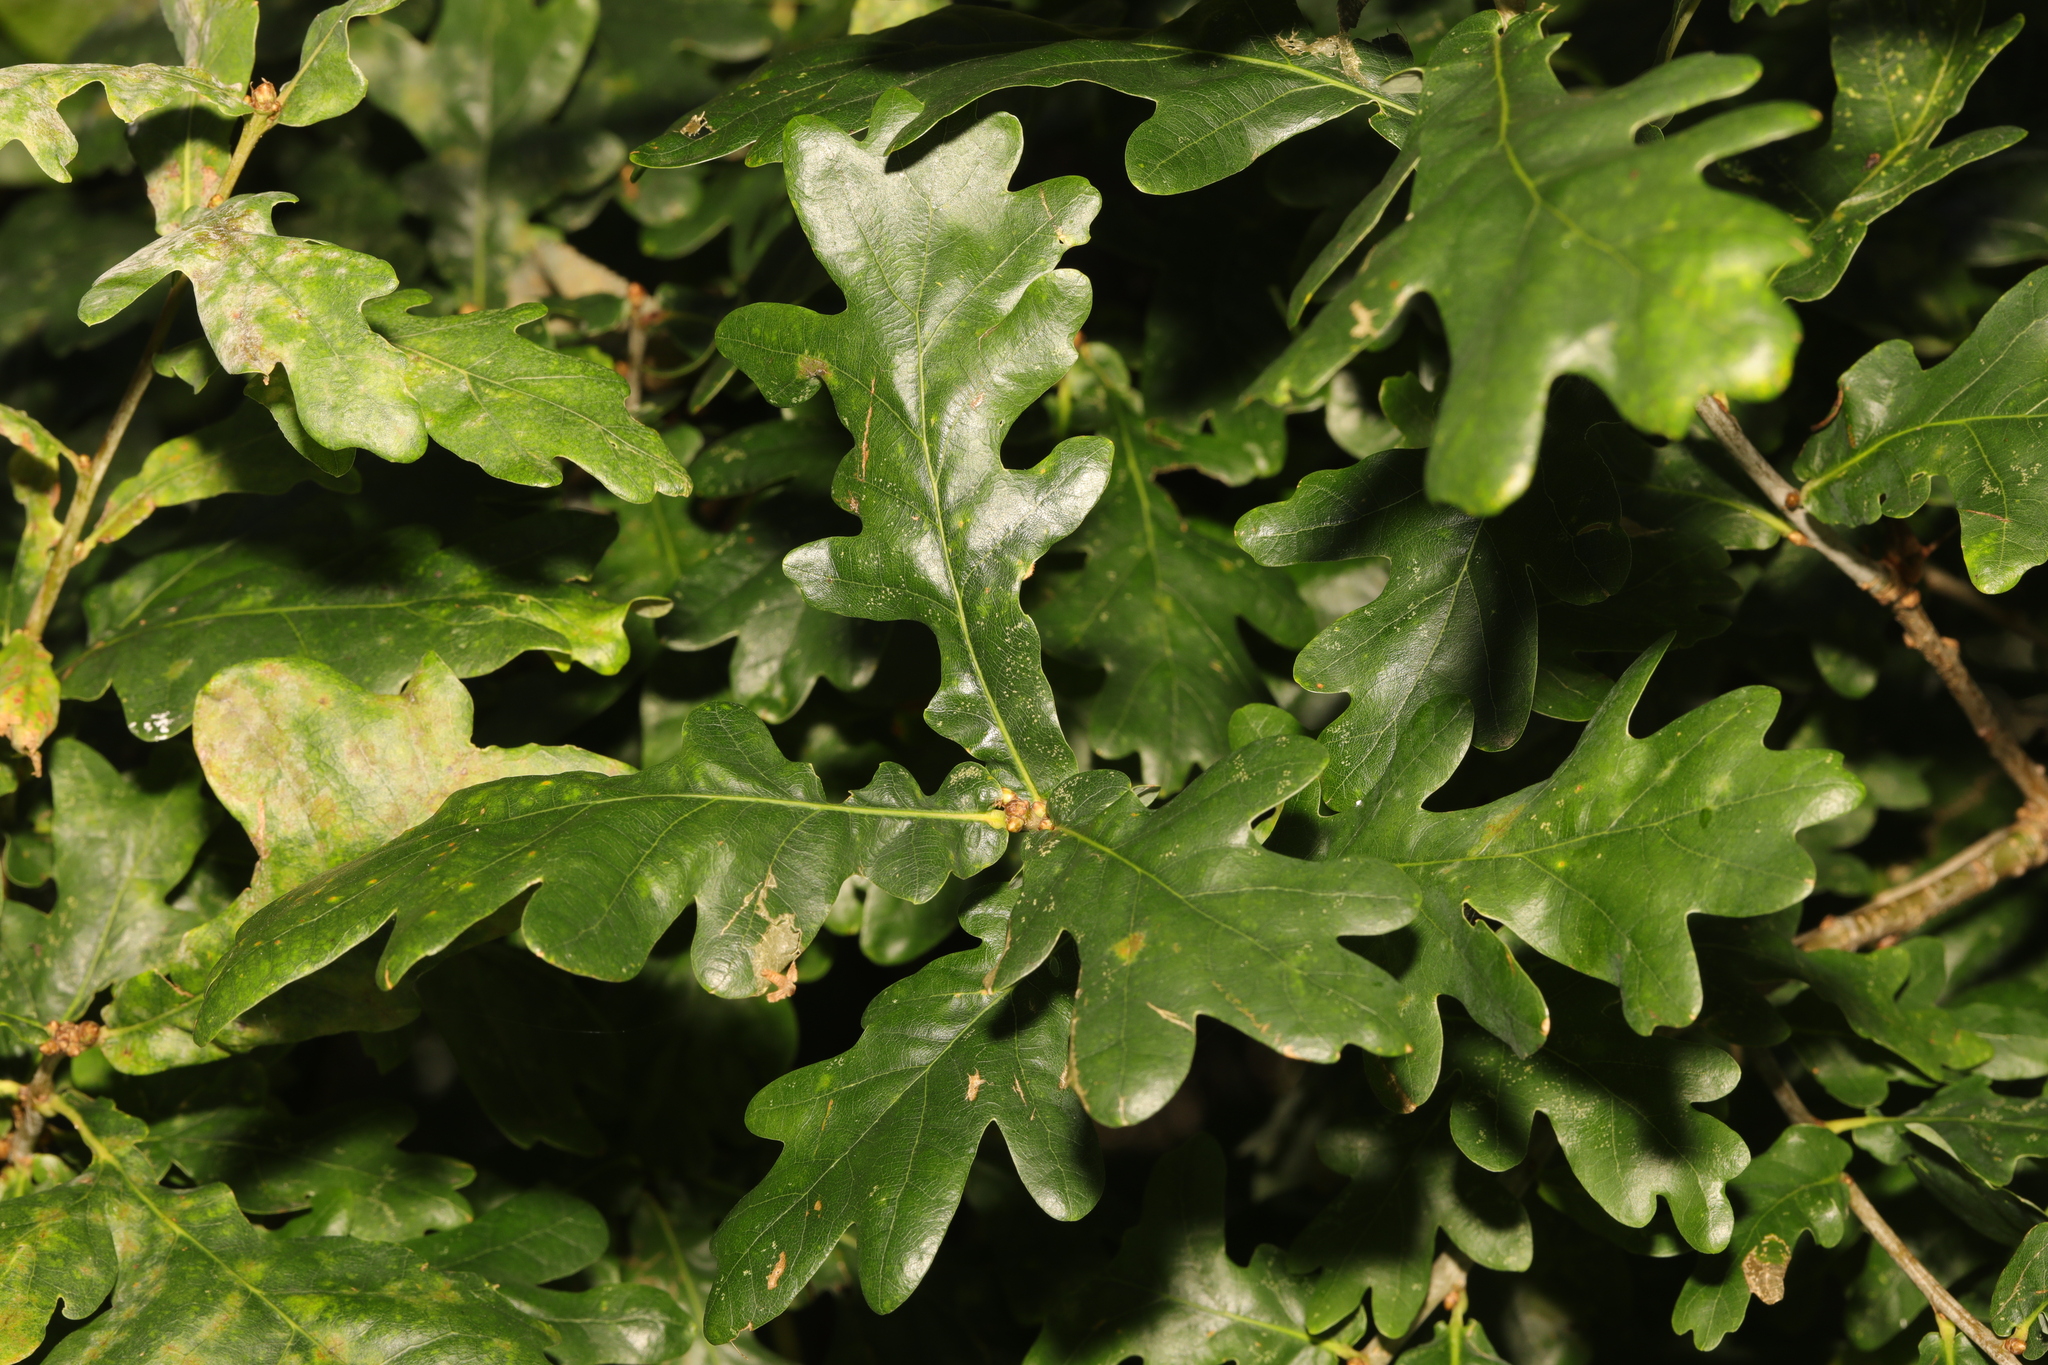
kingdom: Plantae
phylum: Tracheophyta
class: Magnoliopsida
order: Fagales
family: Fagaceae
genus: Quercus
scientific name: Quercus robur
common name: Pedunculate oak
